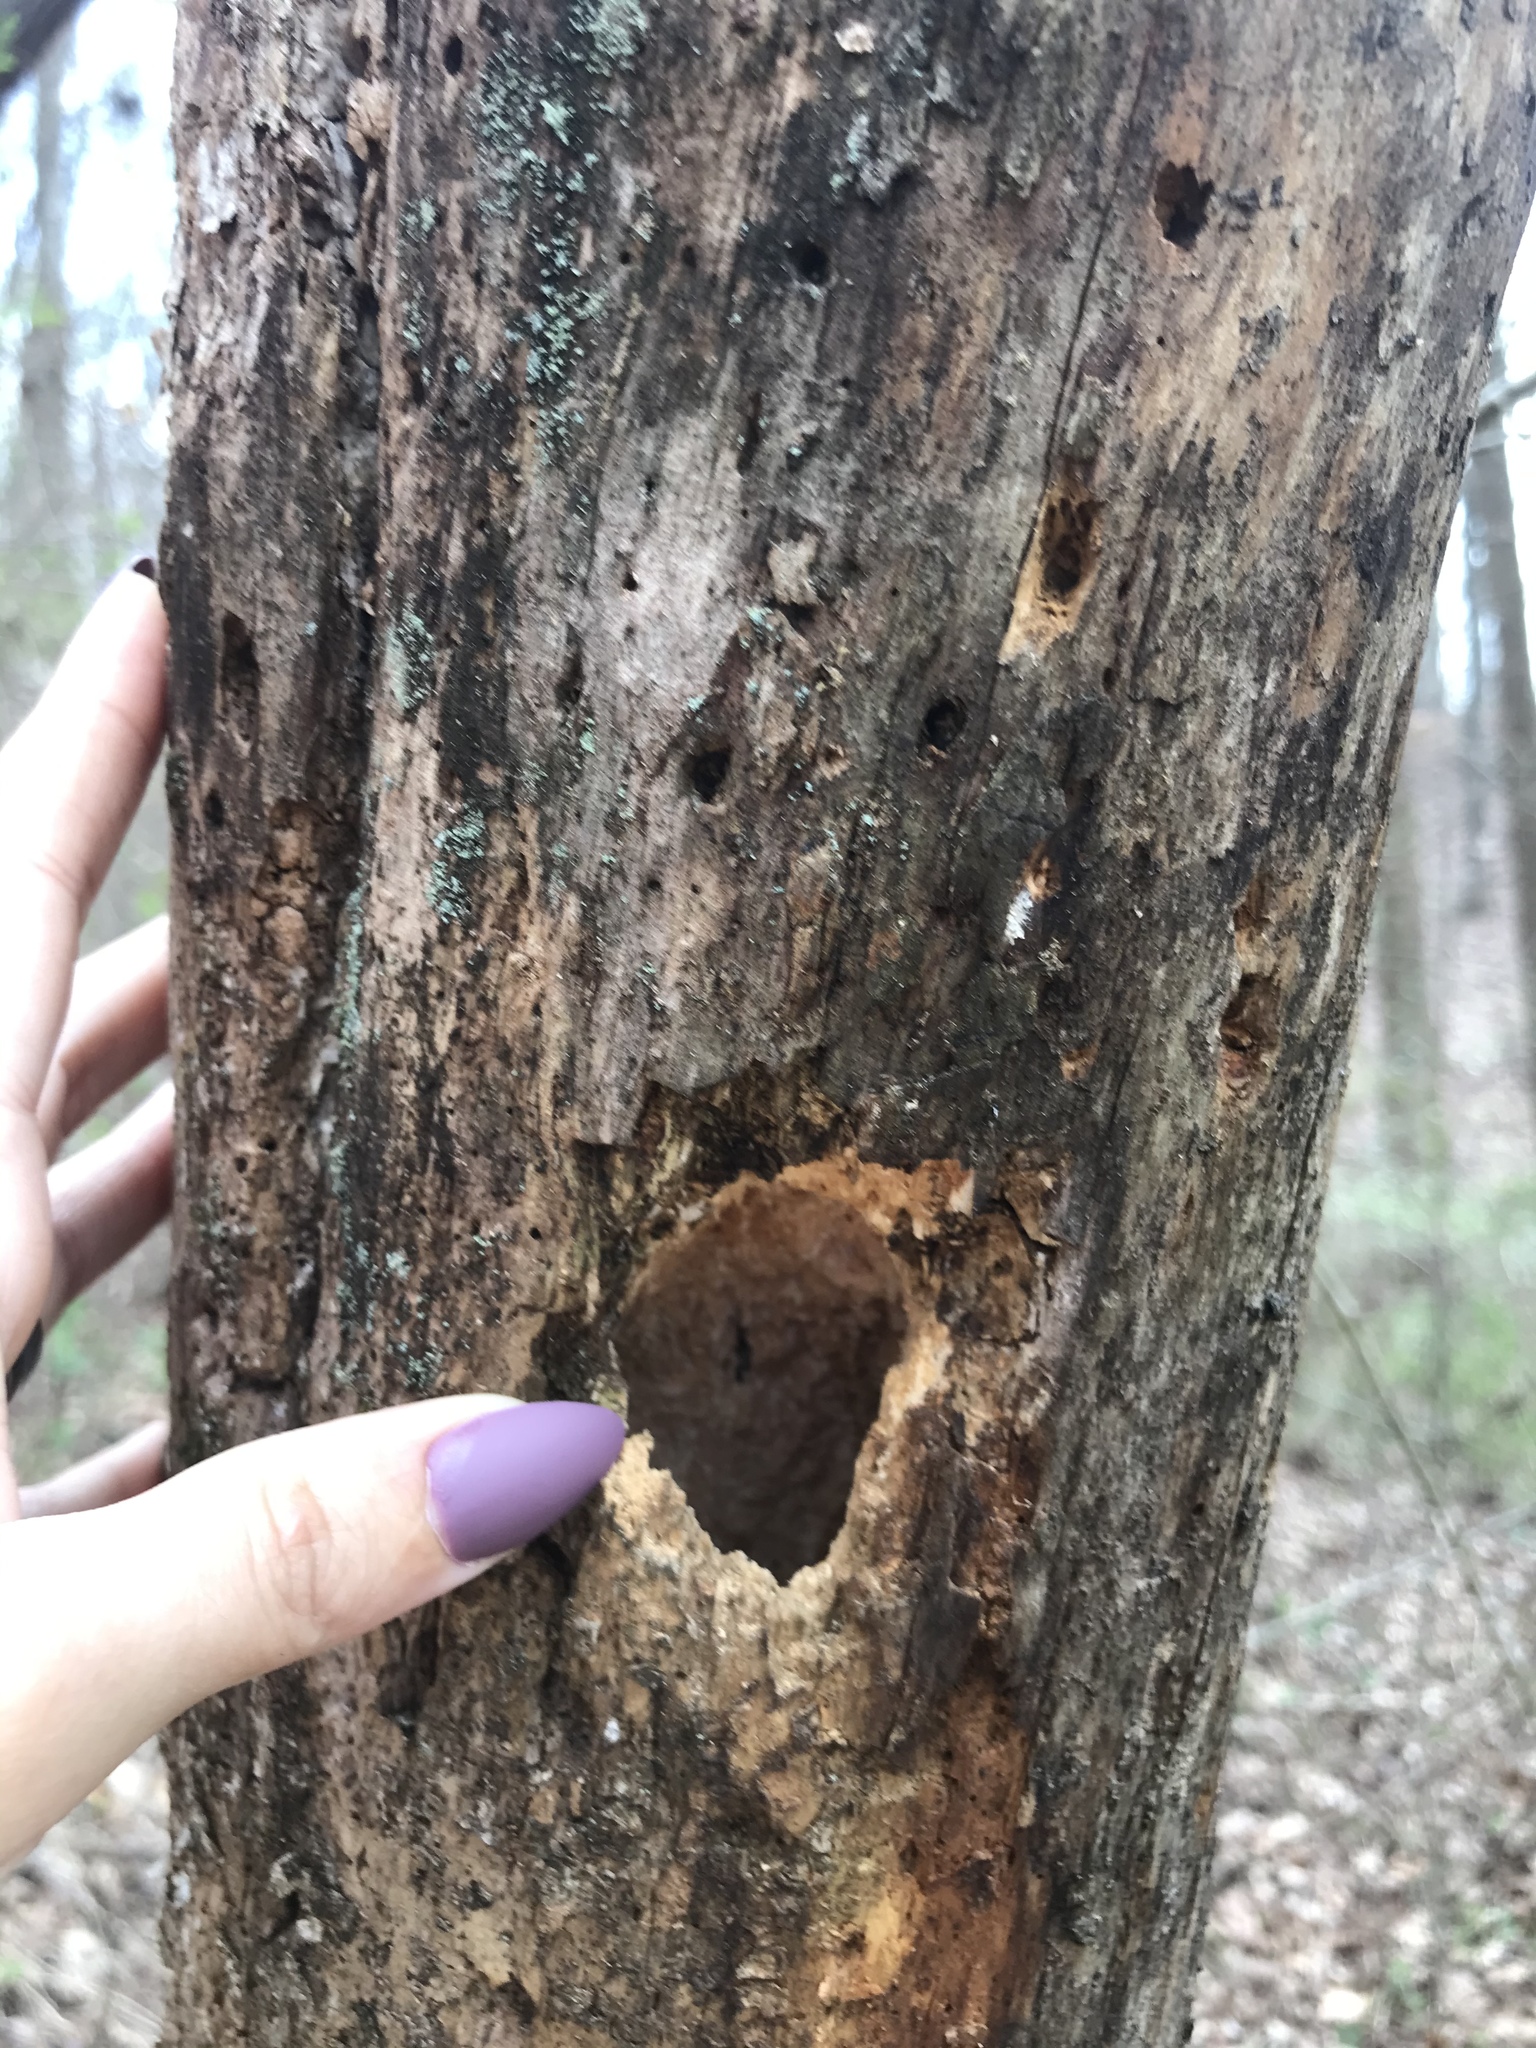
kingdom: Animalia
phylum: Chordata
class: Aves
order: Piciformes
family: Picidae
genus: Dryocopus
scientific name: Dryocopus pileatus
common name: Pileated woodpecker
